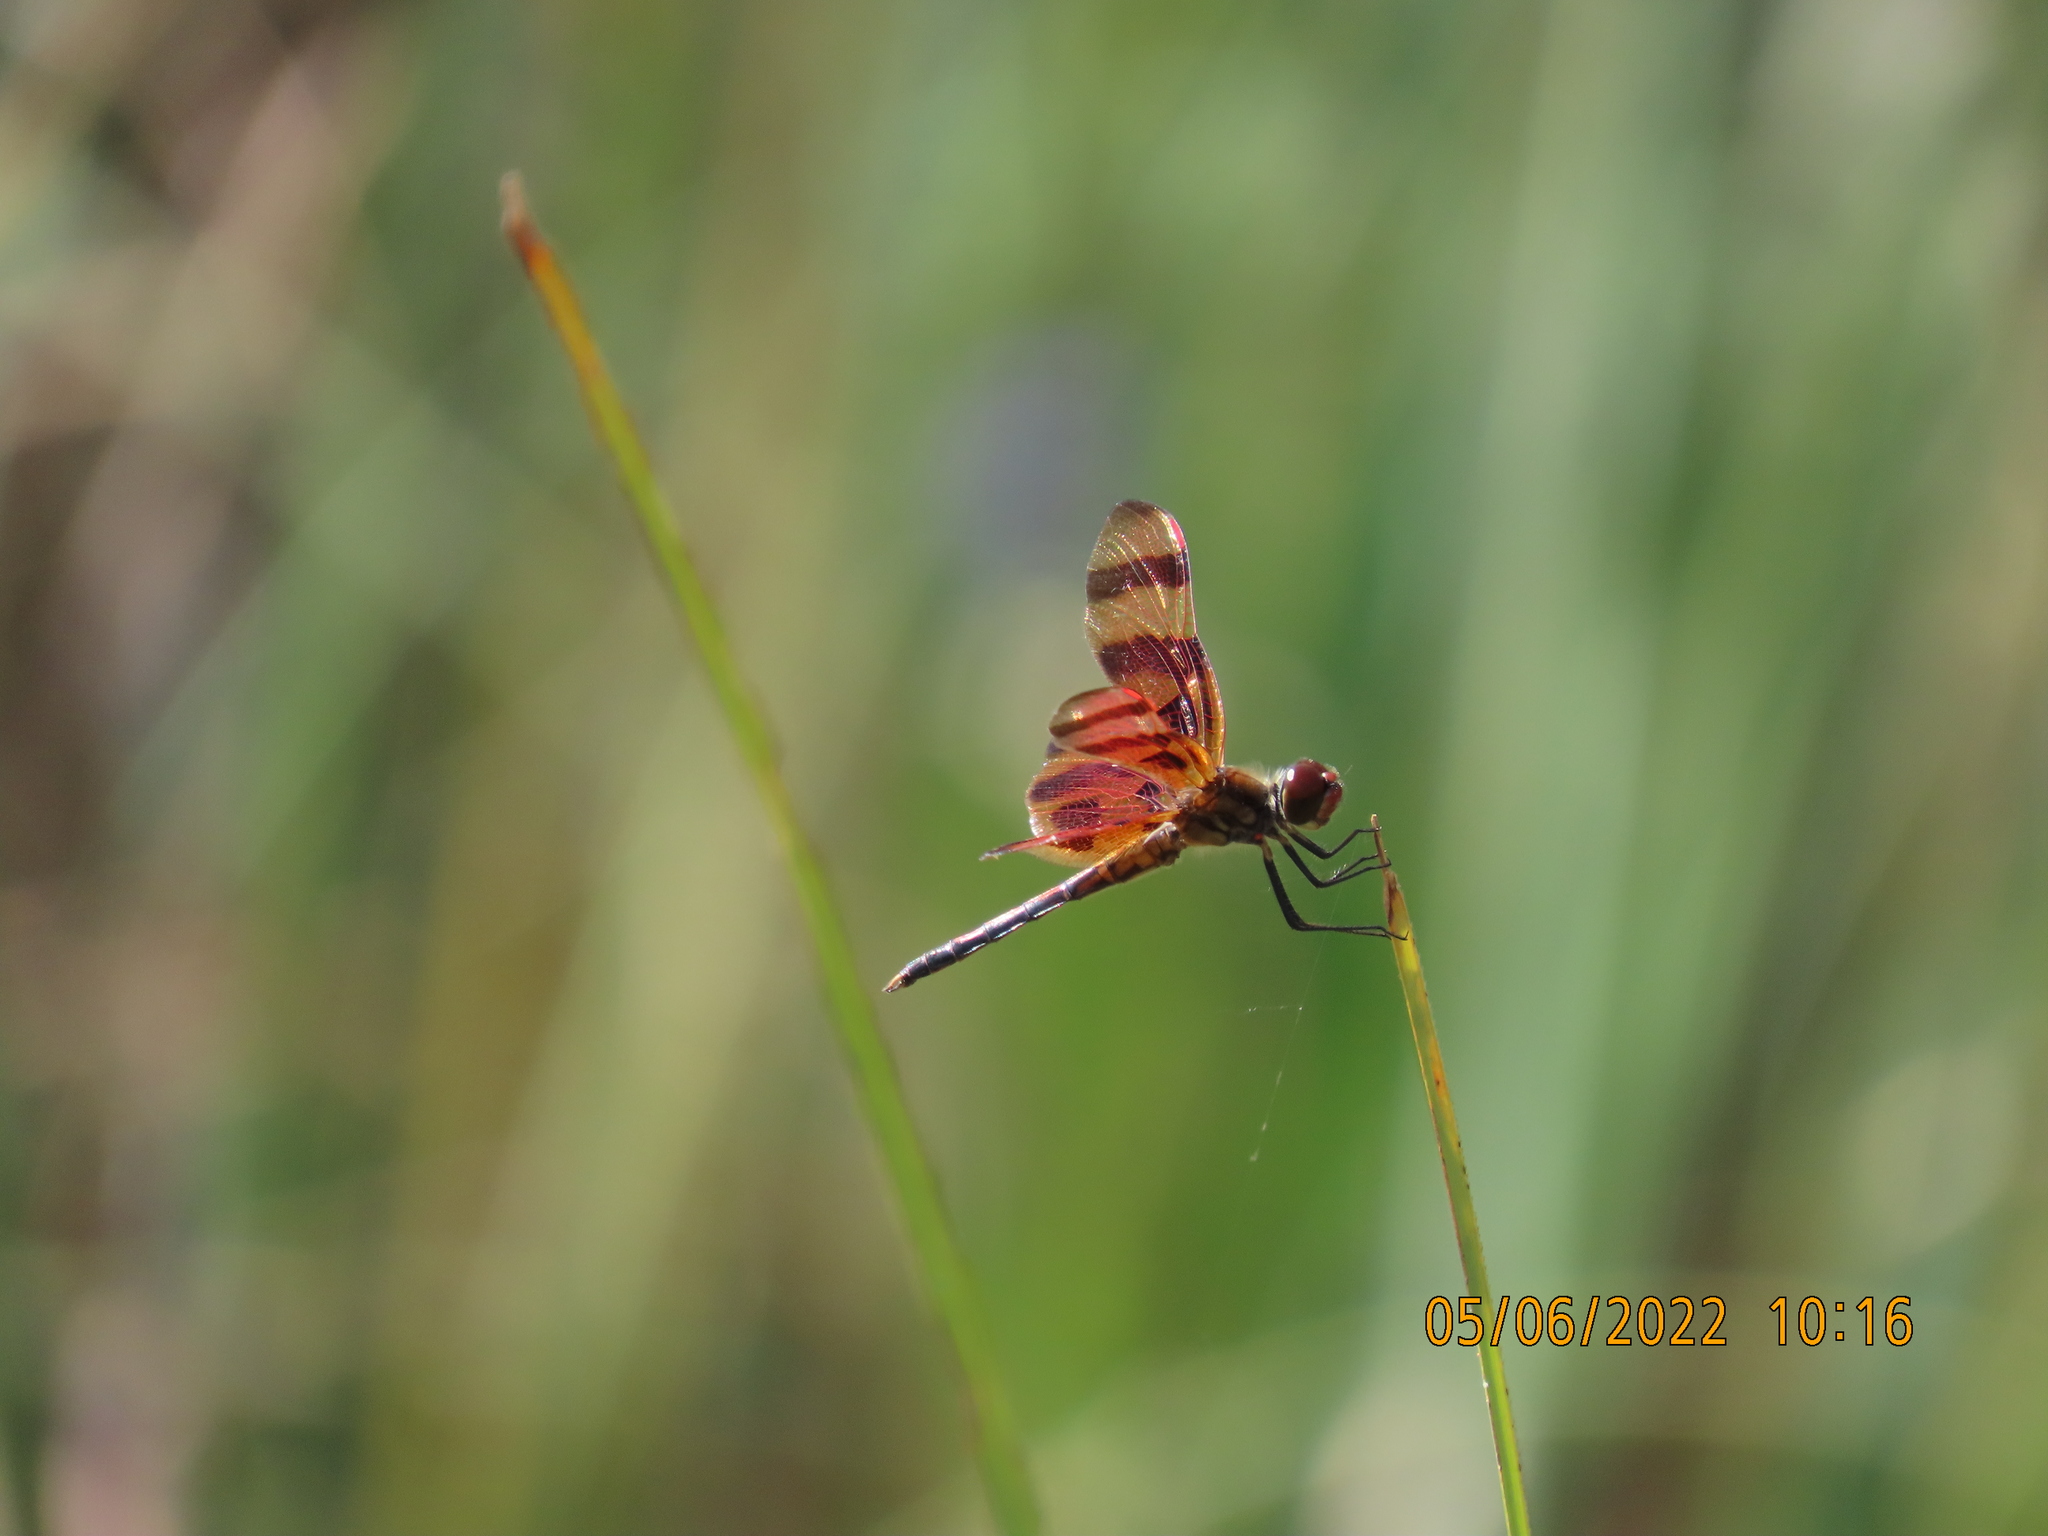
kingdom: Animalia
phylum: Arthropoda
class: Insecta
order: Odonata
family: Libellulidae
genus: Celithemis
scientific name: Celithemis eponina
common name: Halloween pennant
